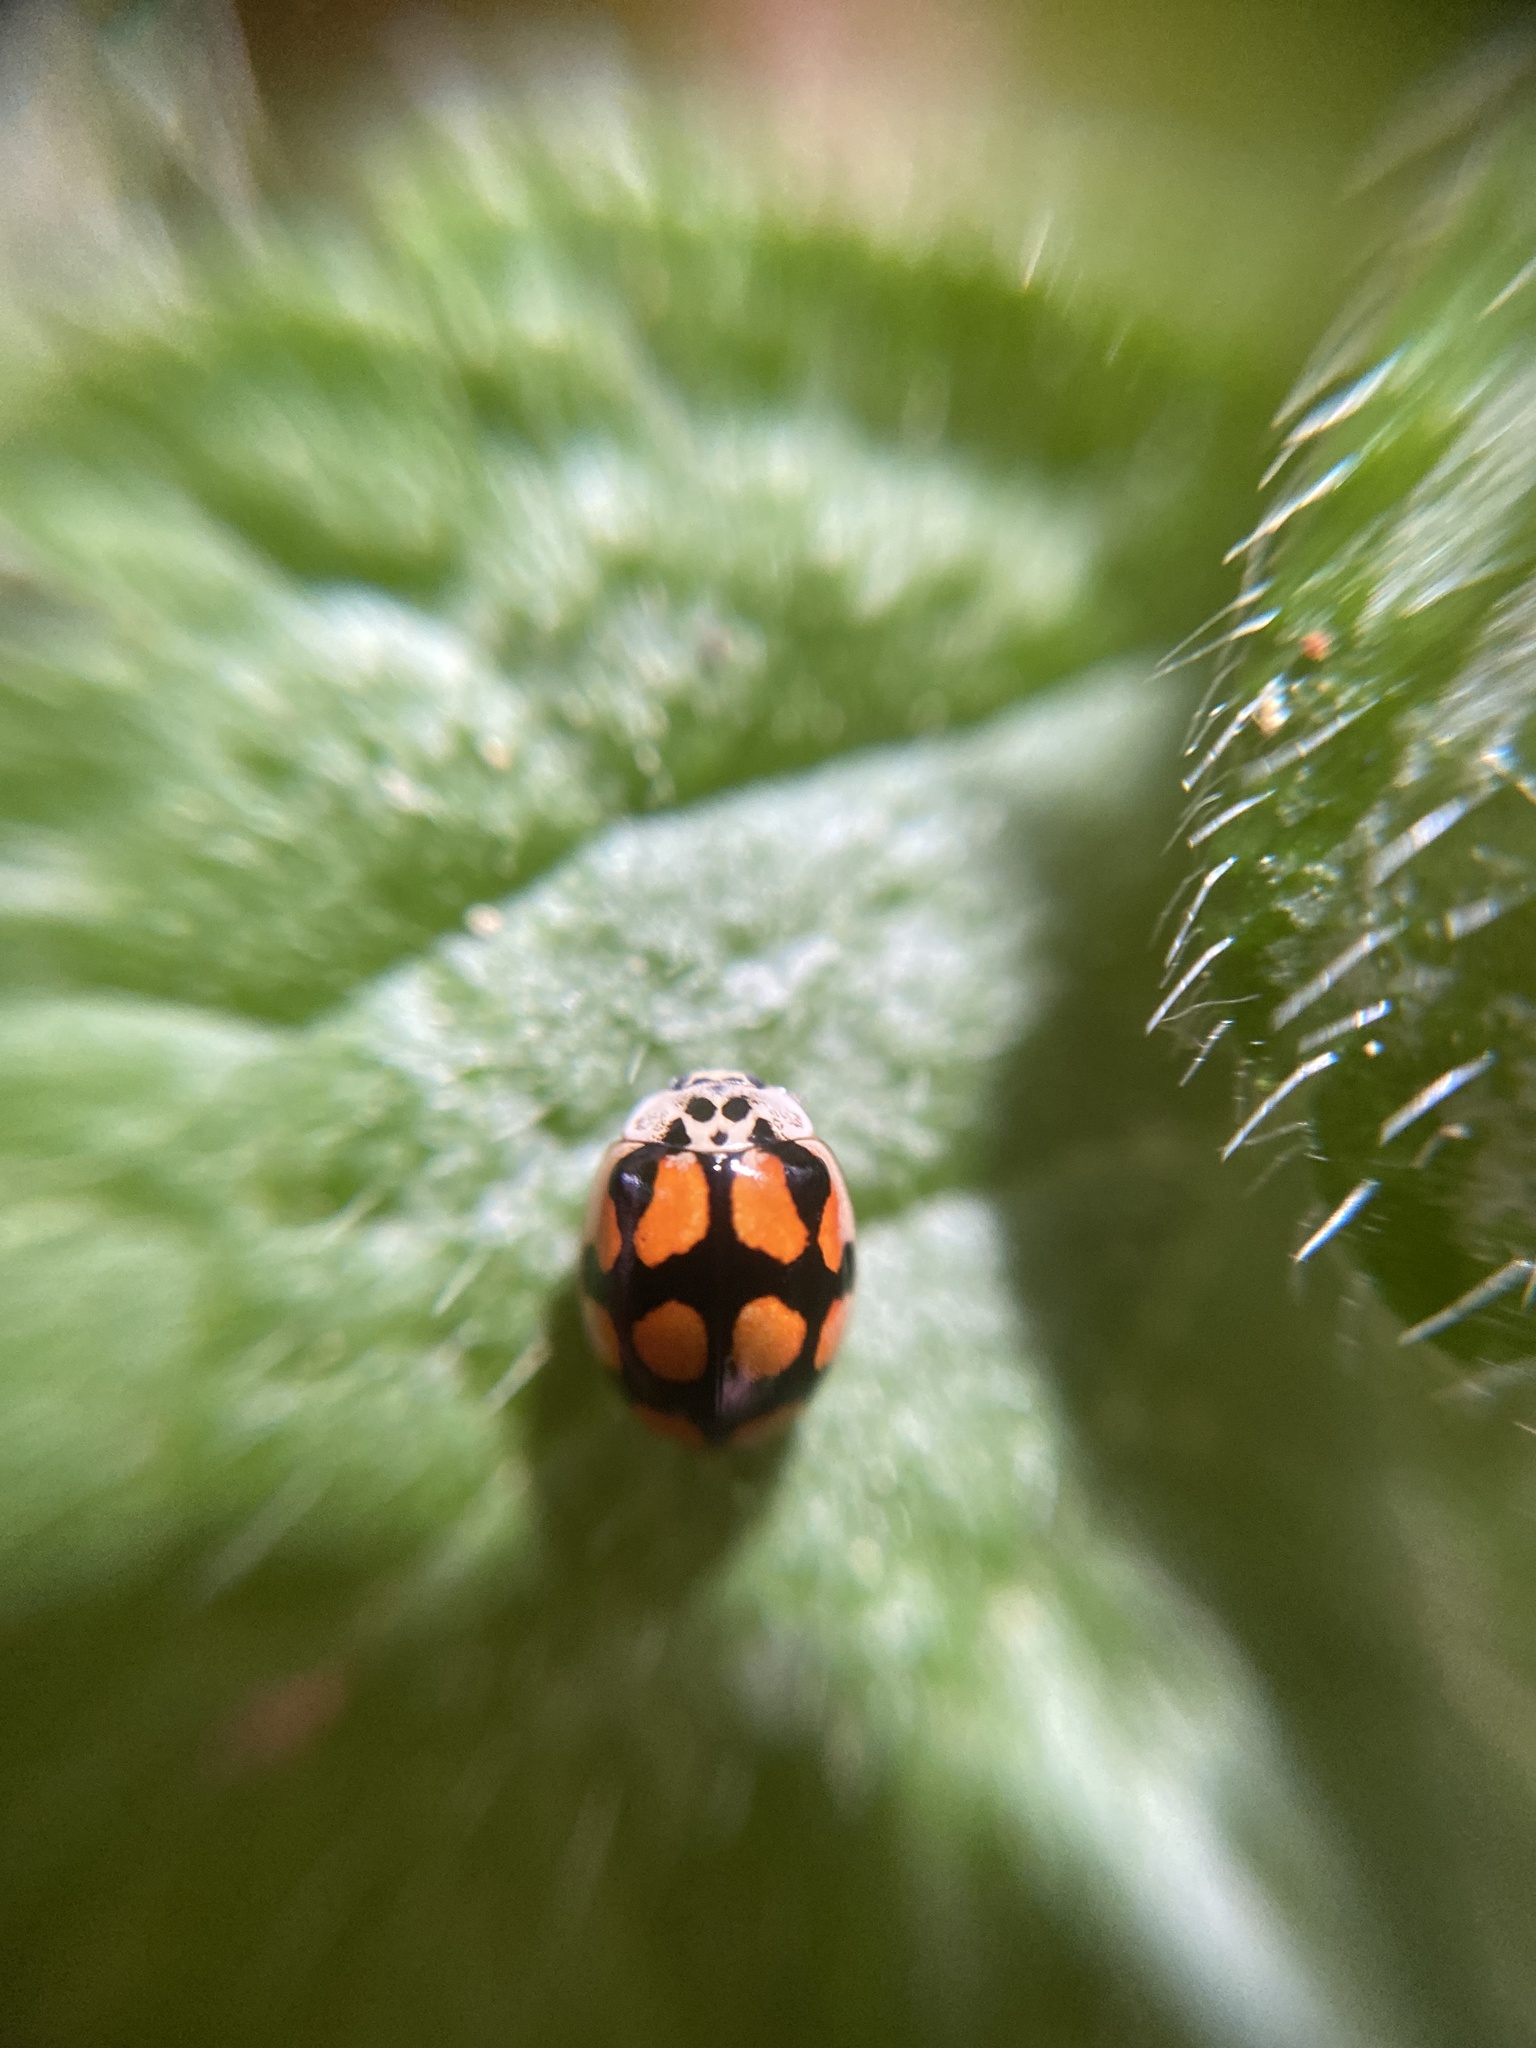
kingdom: Animalia
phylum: Arthropoda
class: Insecta
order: Coleoptera
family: Coccinellidae
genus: Adalia
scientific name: Adalia decempunctata
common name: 10-spot ladybird
